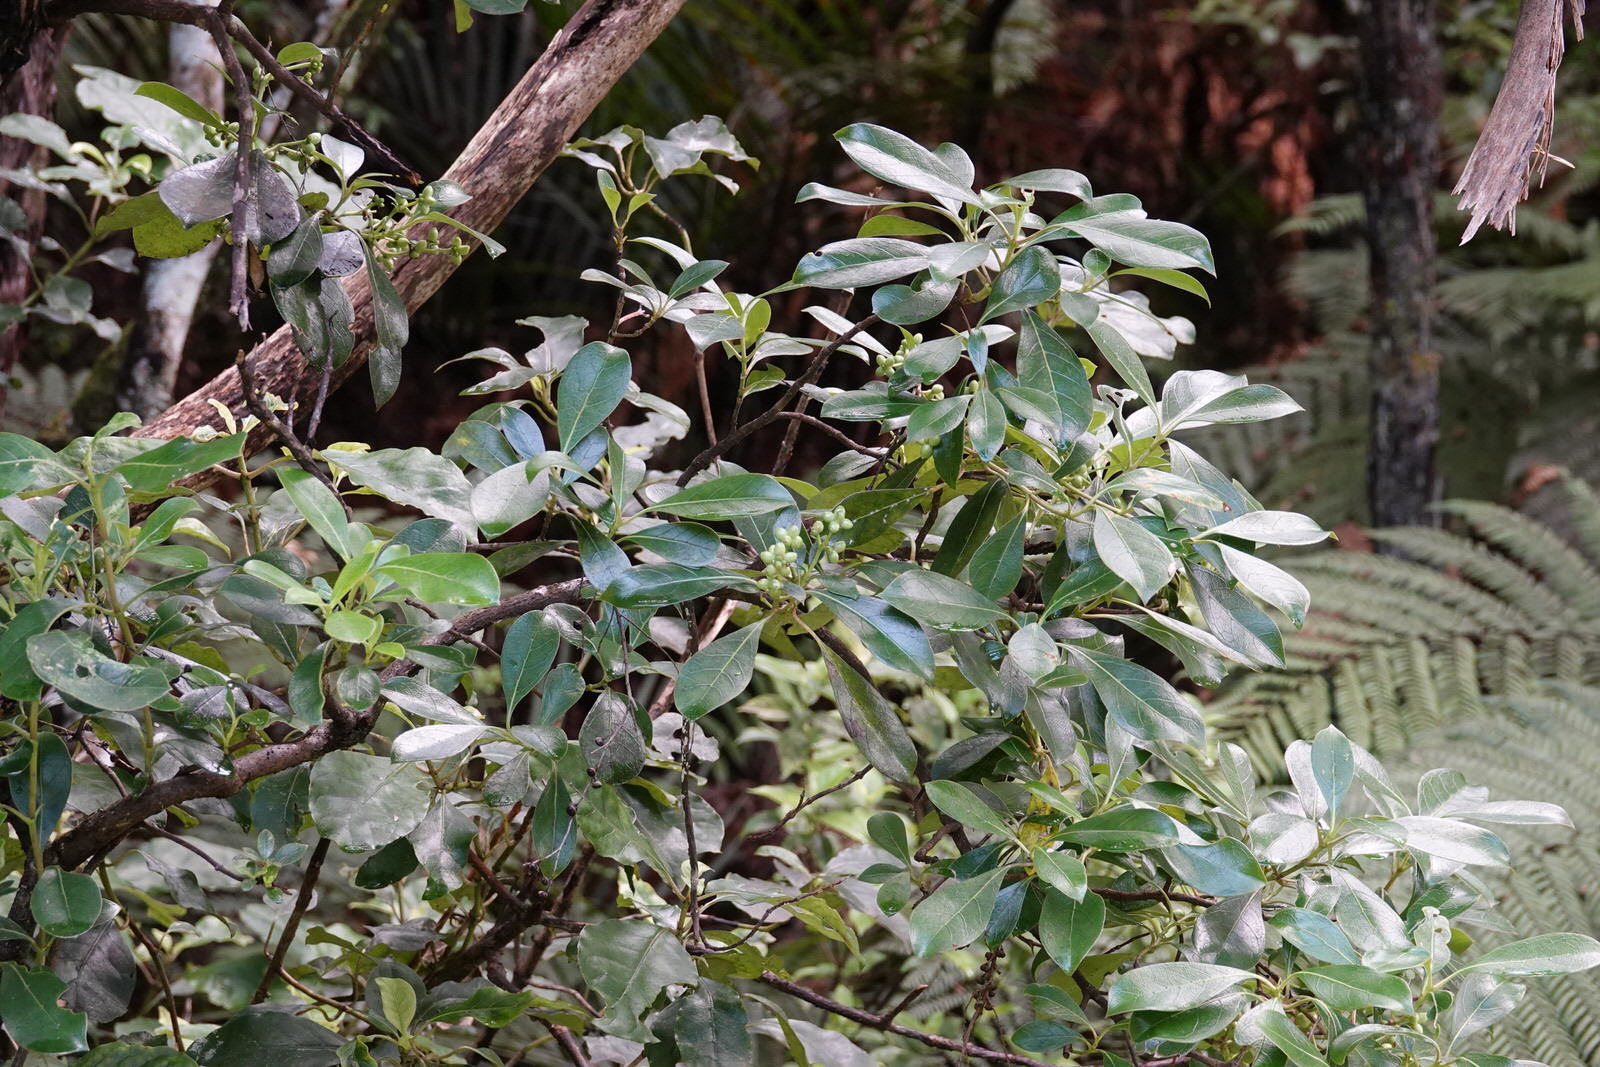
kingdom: Plantae
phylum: Tracheophyta
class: Magnoliopsida
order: Gentianales
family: Rubiaceae
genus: Coprosma
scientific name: Coprosma lucida
